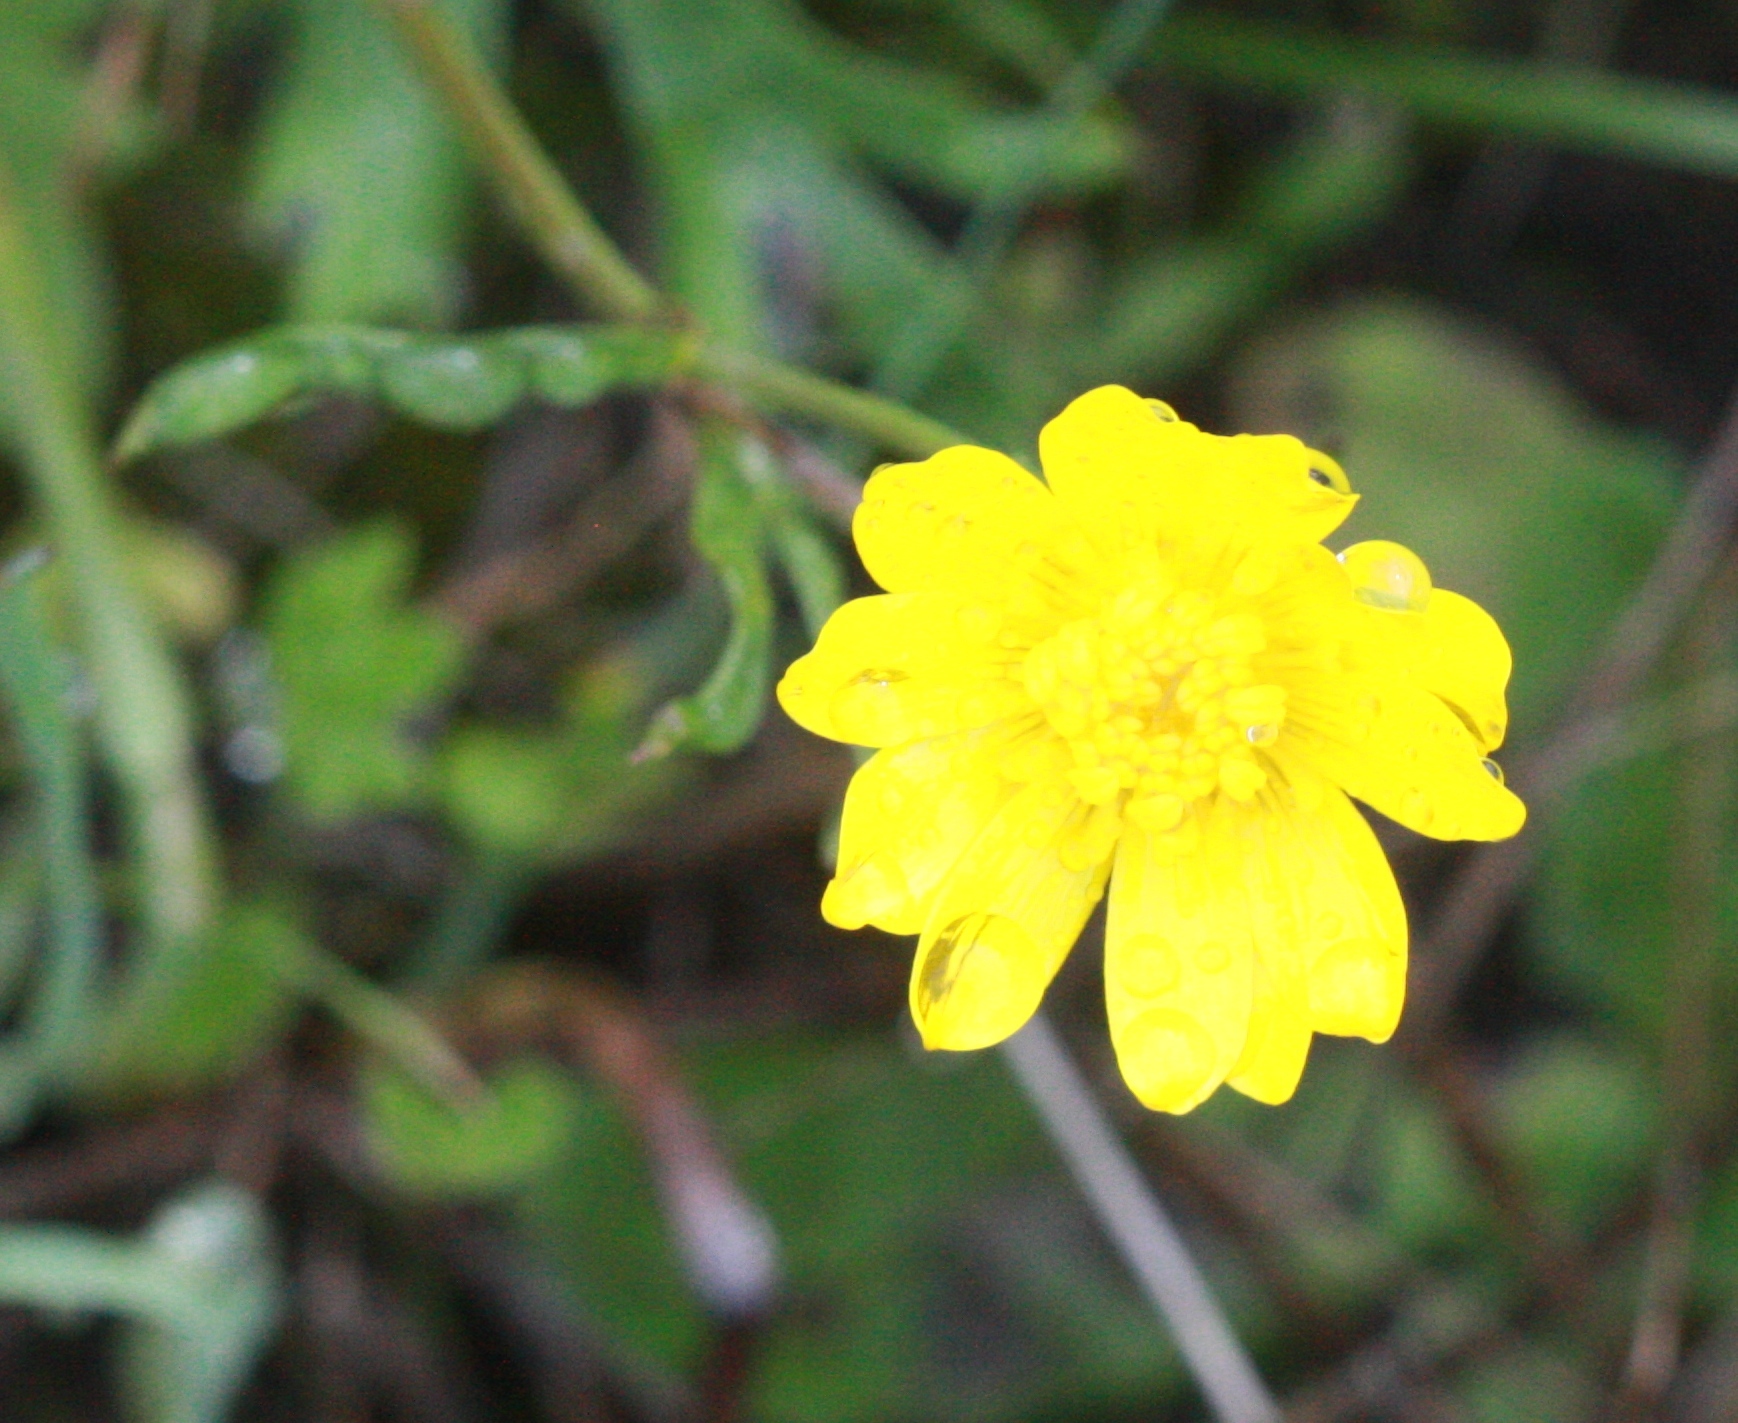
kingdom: Plantae
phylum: Tracheophyta
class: Magnoliopsida
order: Ranunculales
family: Ranunculaceae
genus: Ranunculus
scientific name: Ranunculus californicus
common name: California buttercup
